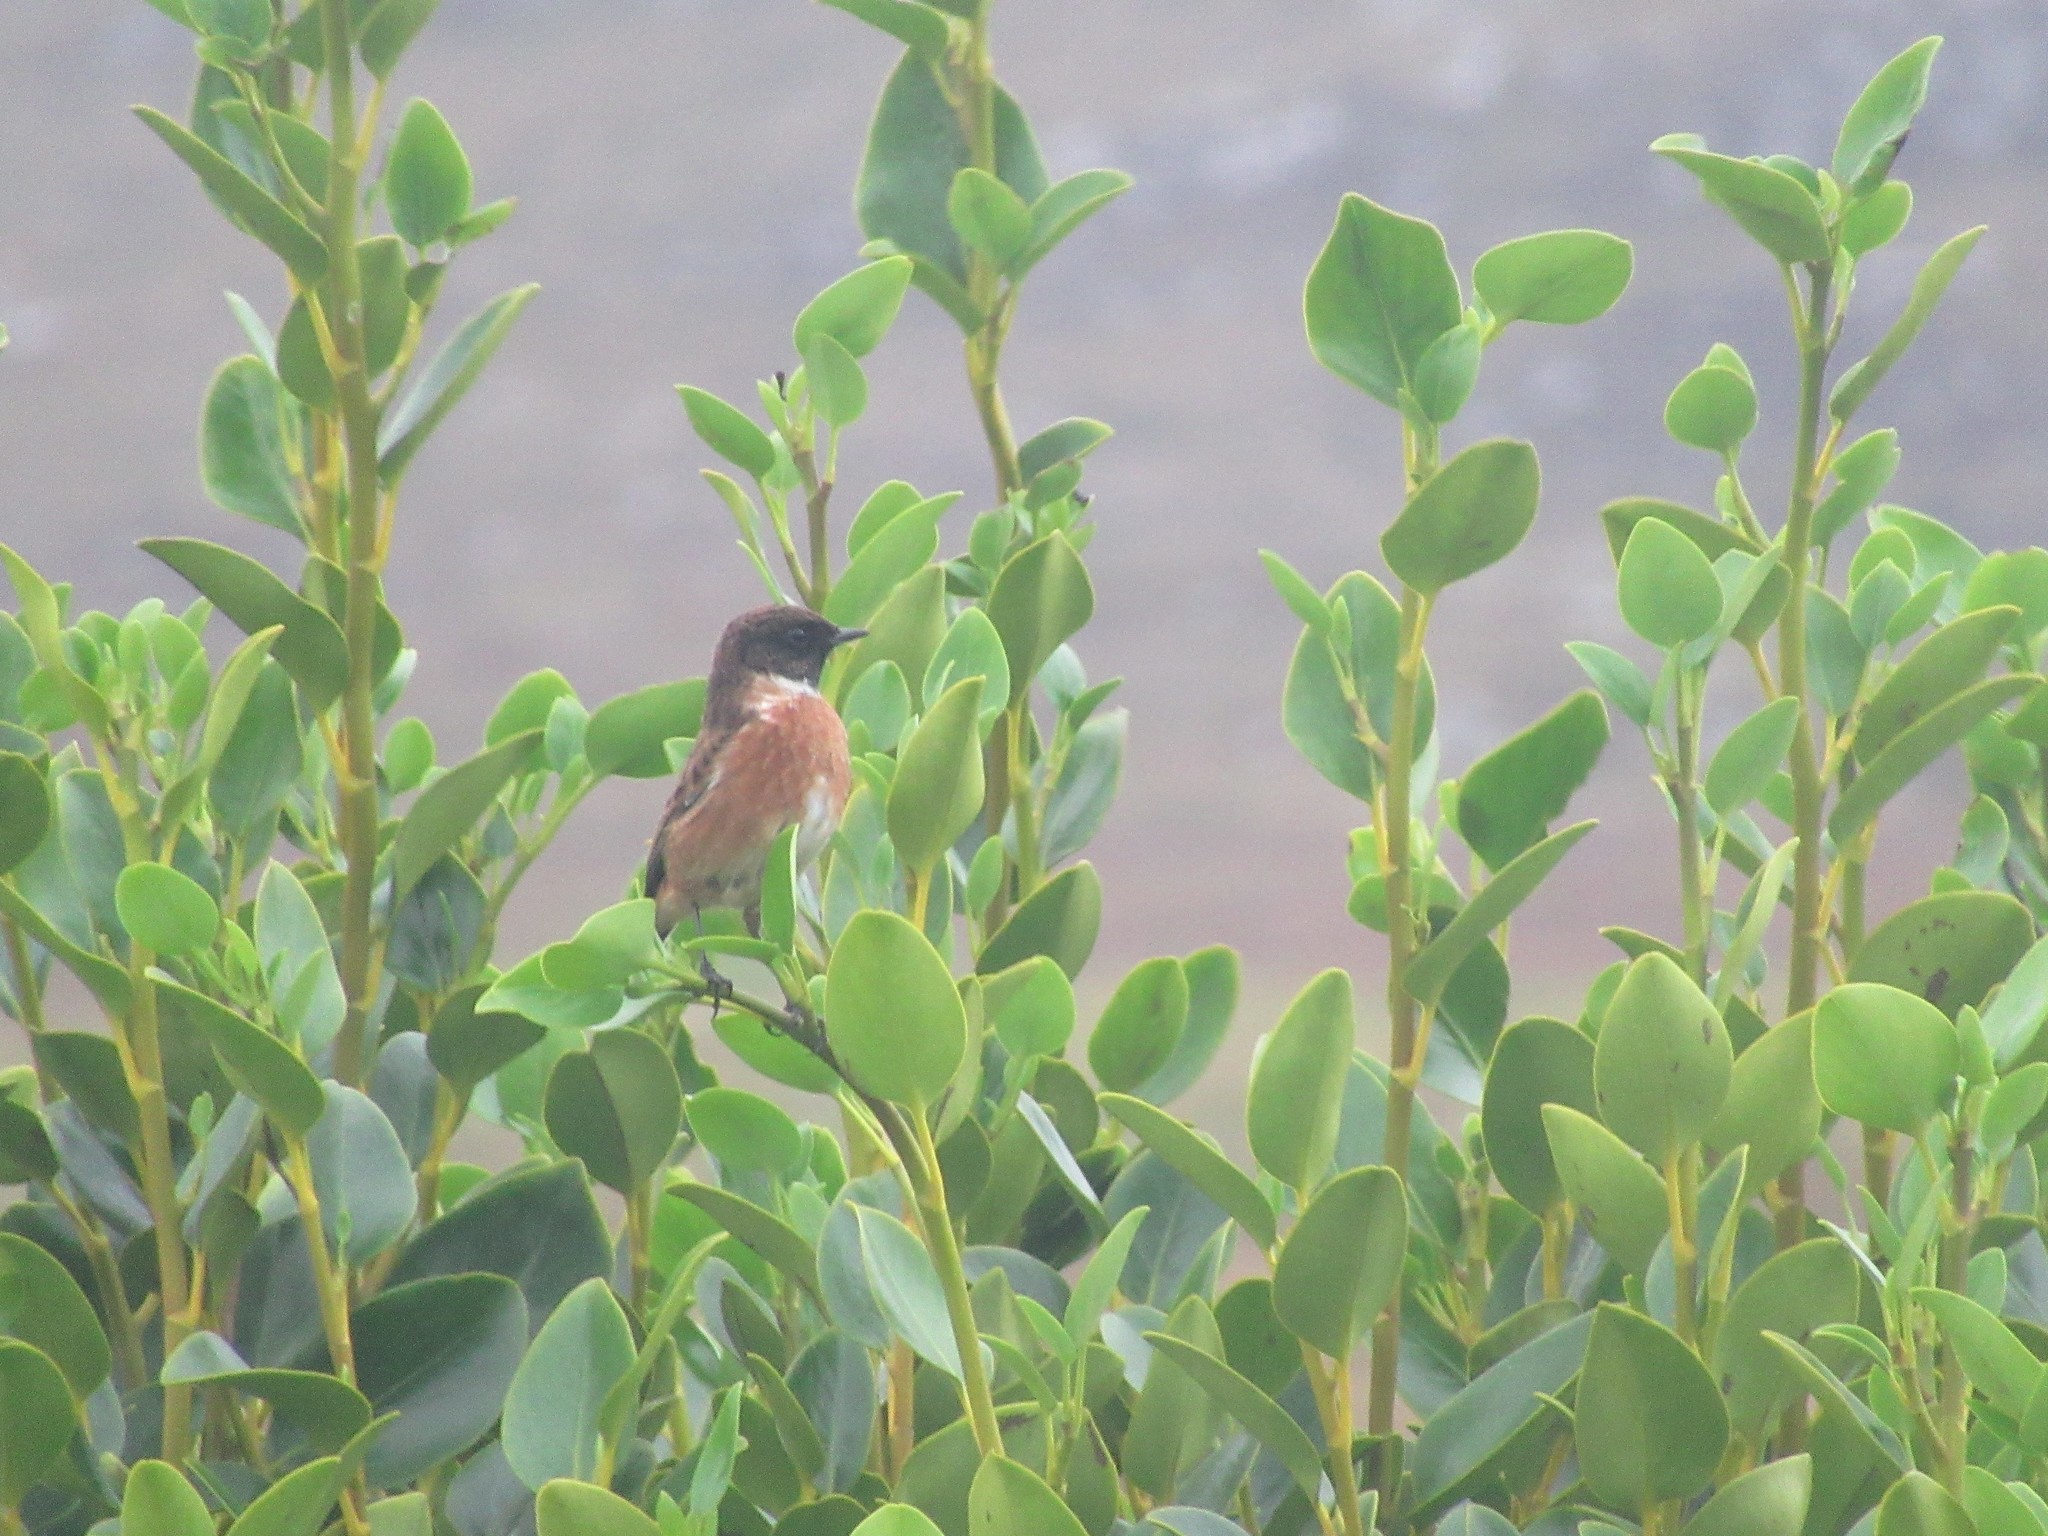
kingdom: Animalia
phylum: Chordata
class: Aves
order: Passeriformes
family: Muscicapidae
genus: Saxicola
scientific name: Saxicola rubicola
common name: European stonechat
